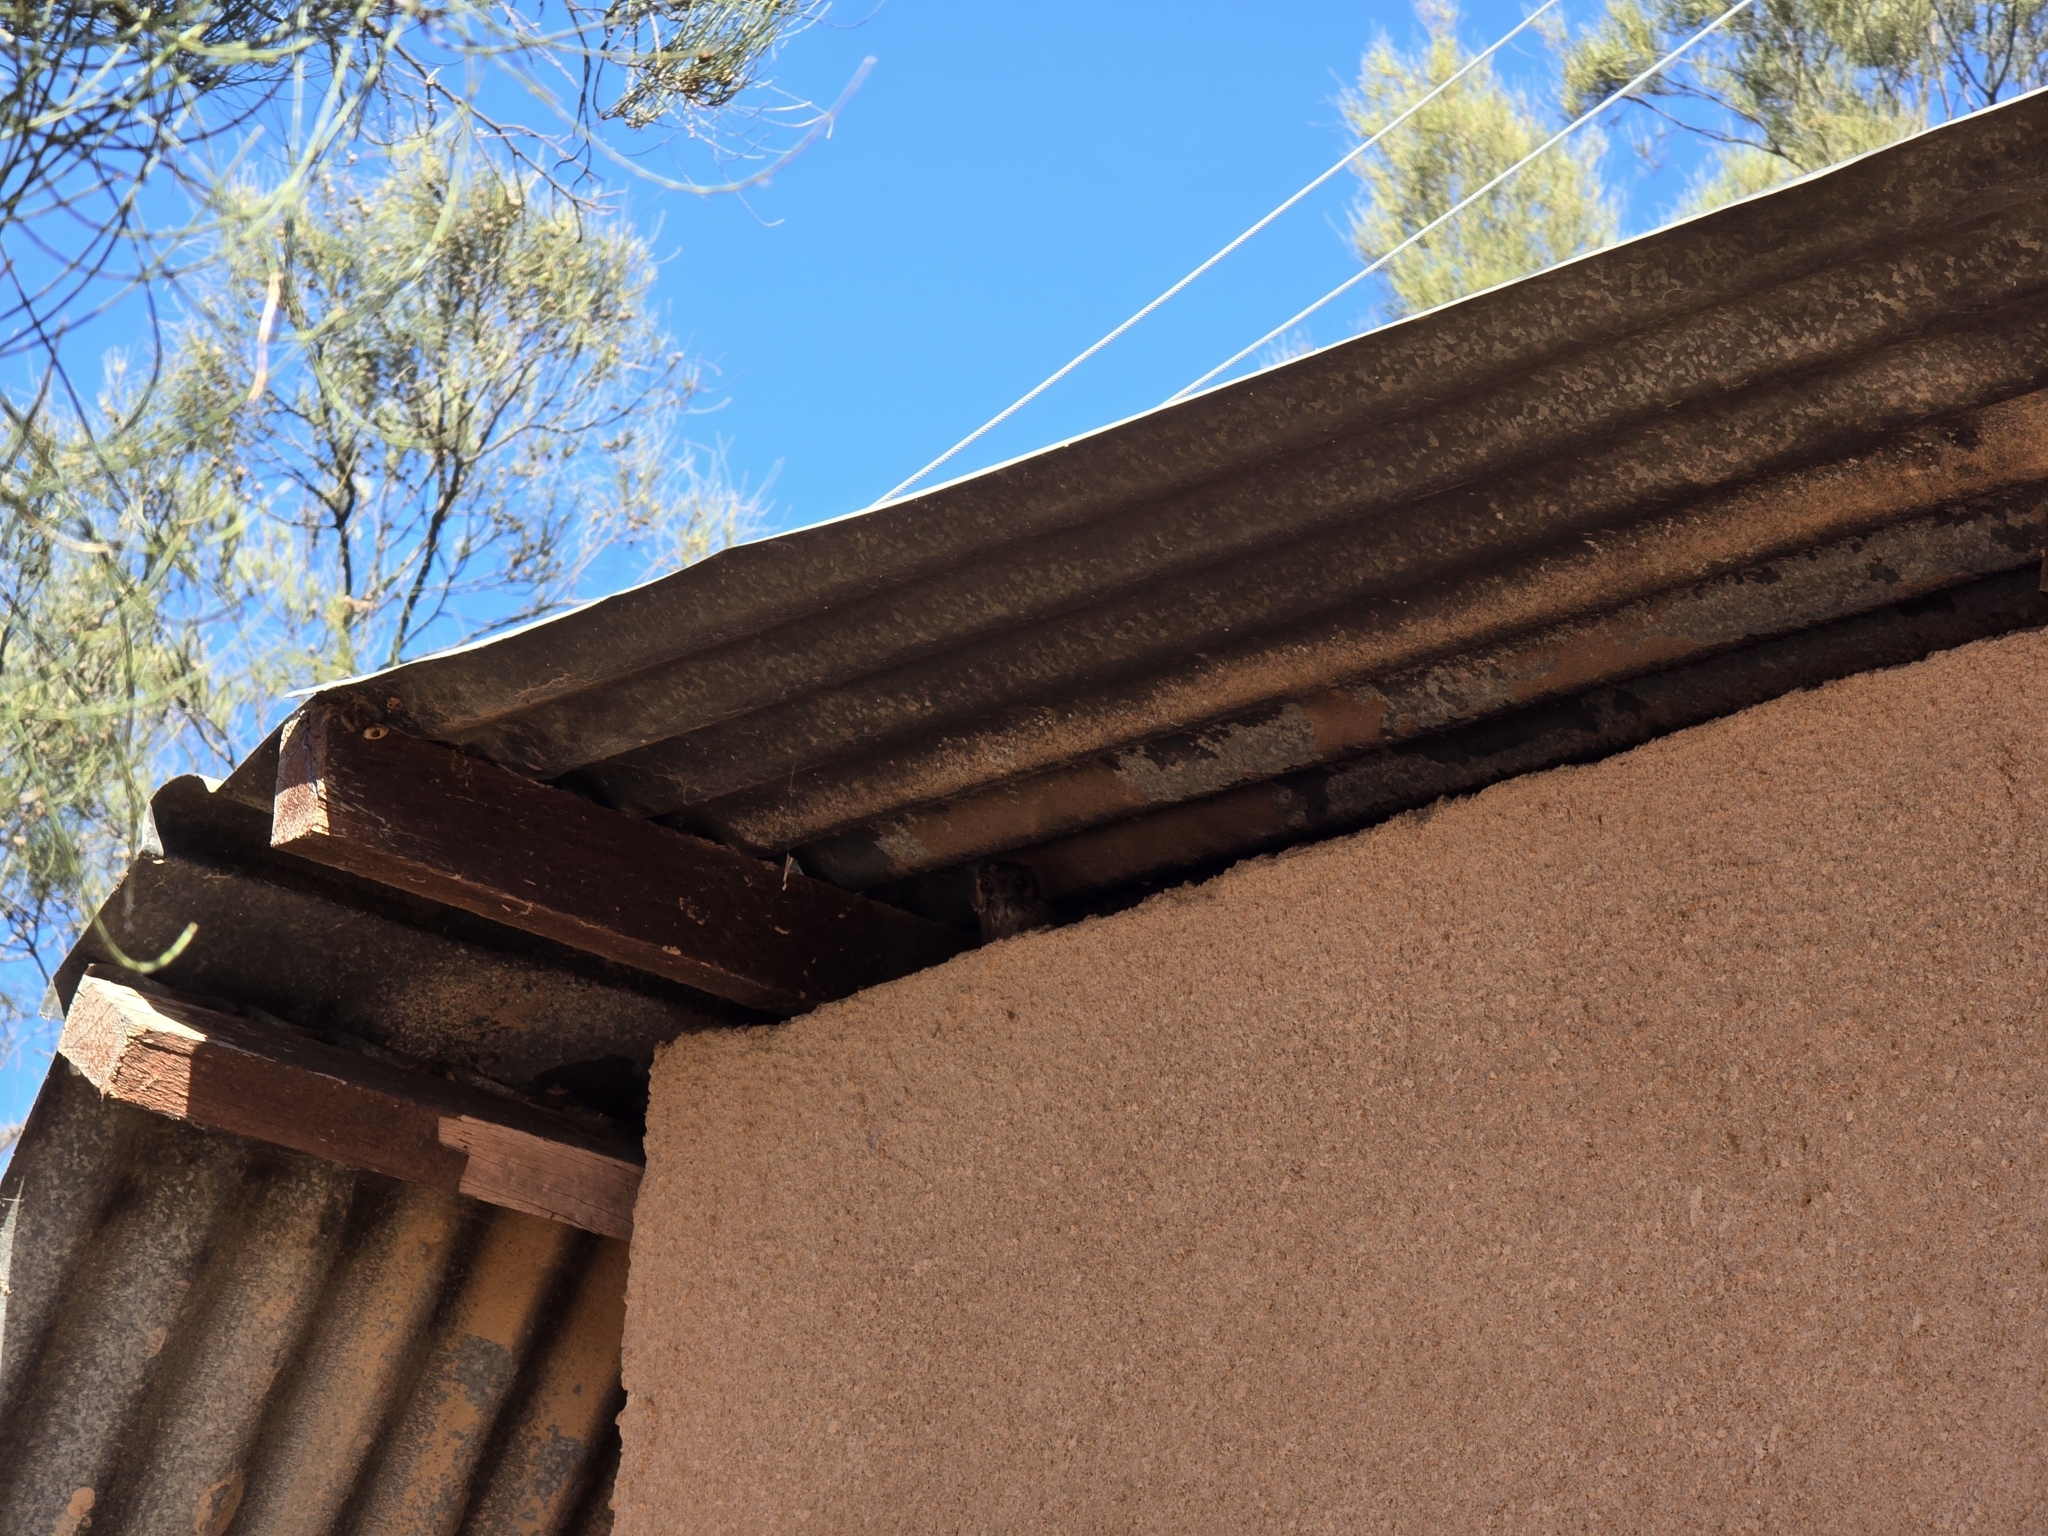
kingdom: Animalia
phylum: Chordata
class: Aves
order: Apodiformes
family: Aegothelidae
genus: Aegotheles
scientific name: Aegotheles cristatus
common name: Australian owlet-nightjar
